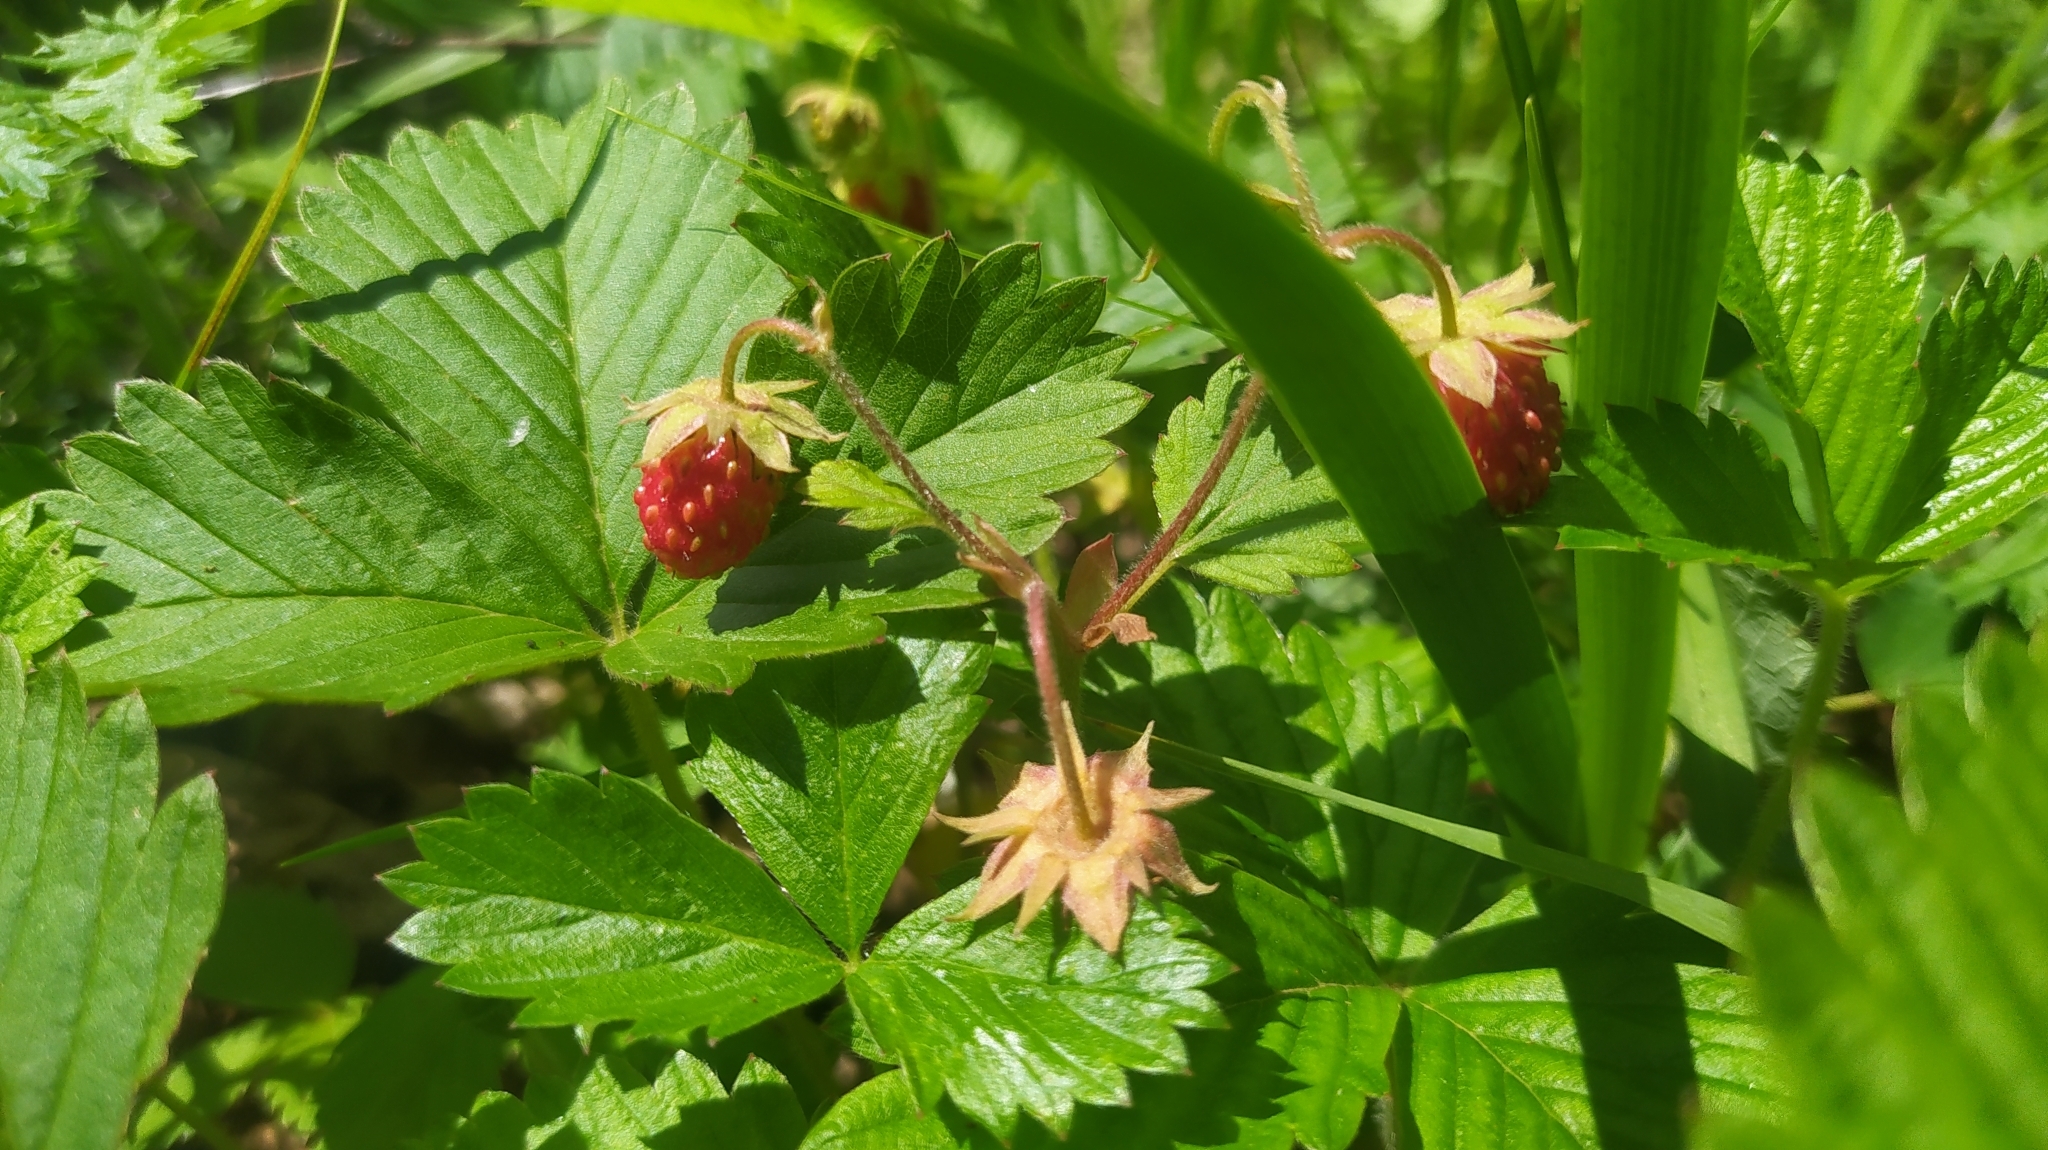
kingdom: Plantae
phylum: Tracheophyta
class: Magnoliopsida
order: Rosales
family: Rosaceae
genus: Fragaria
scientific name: Fragaria orientalis
